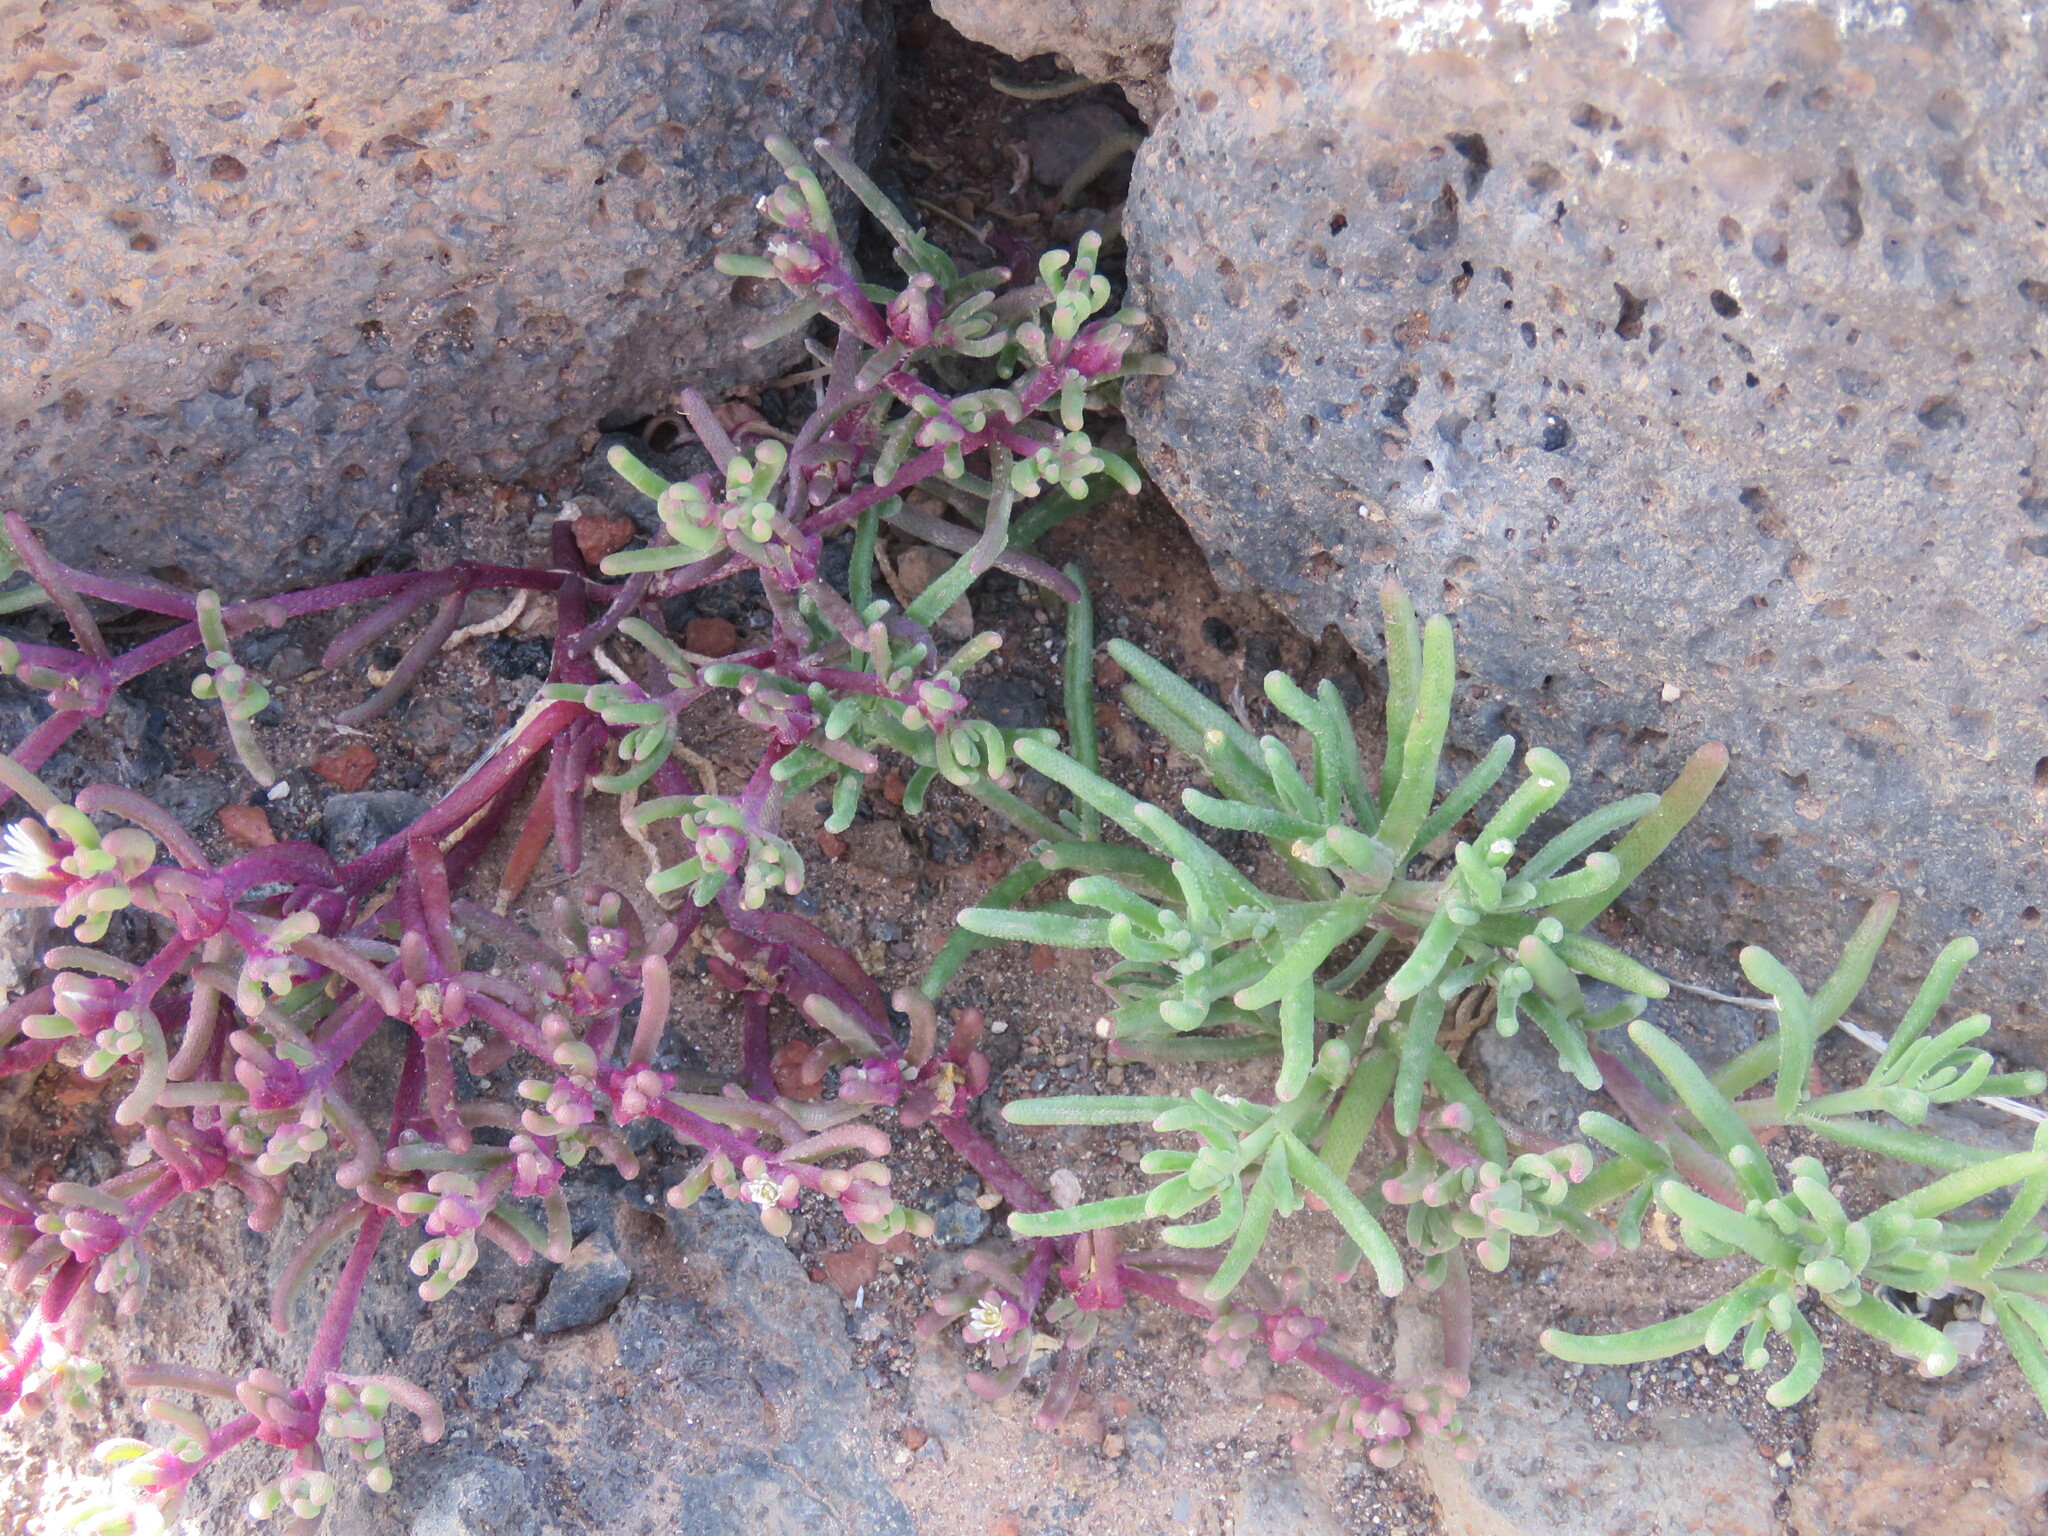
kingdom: Plantae
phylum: Tracheophyta
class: Magnoliopsida
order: Caryophyllales
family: Aizoaceae
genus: Mesembryanthemum
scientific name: Mesembryanthemum nodiflorum
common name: Slenderleaf iceplant
